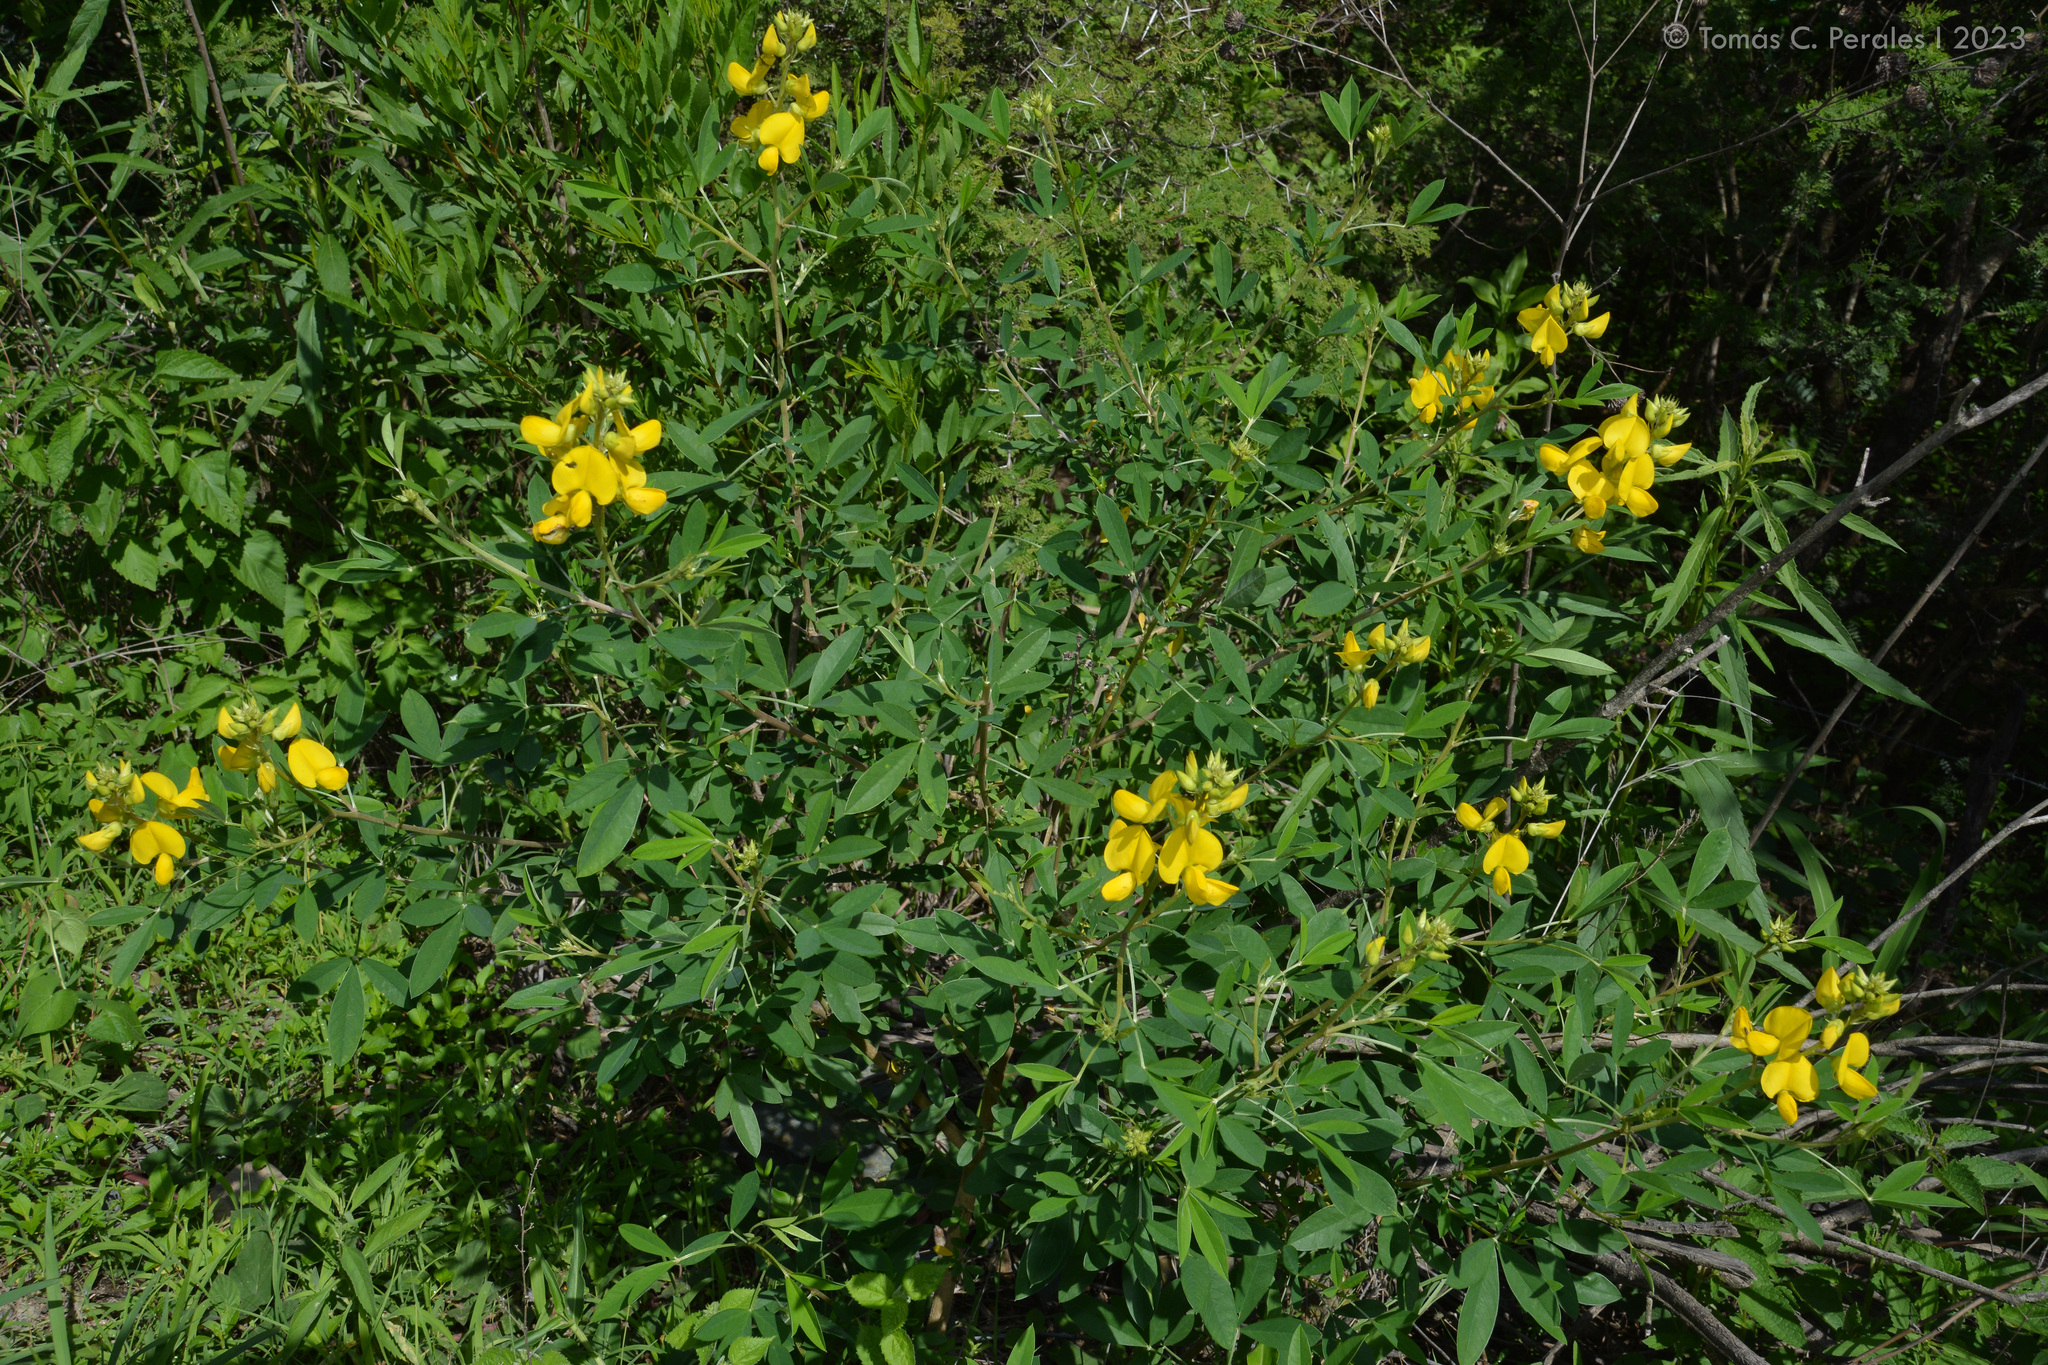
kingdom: Plantae
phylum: Tracheophyta
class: Magnoliopsida
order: Fabales
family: Fabaceae
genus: Crotalaria
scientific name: Crotalaria micans
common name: Caracas rattlebox
